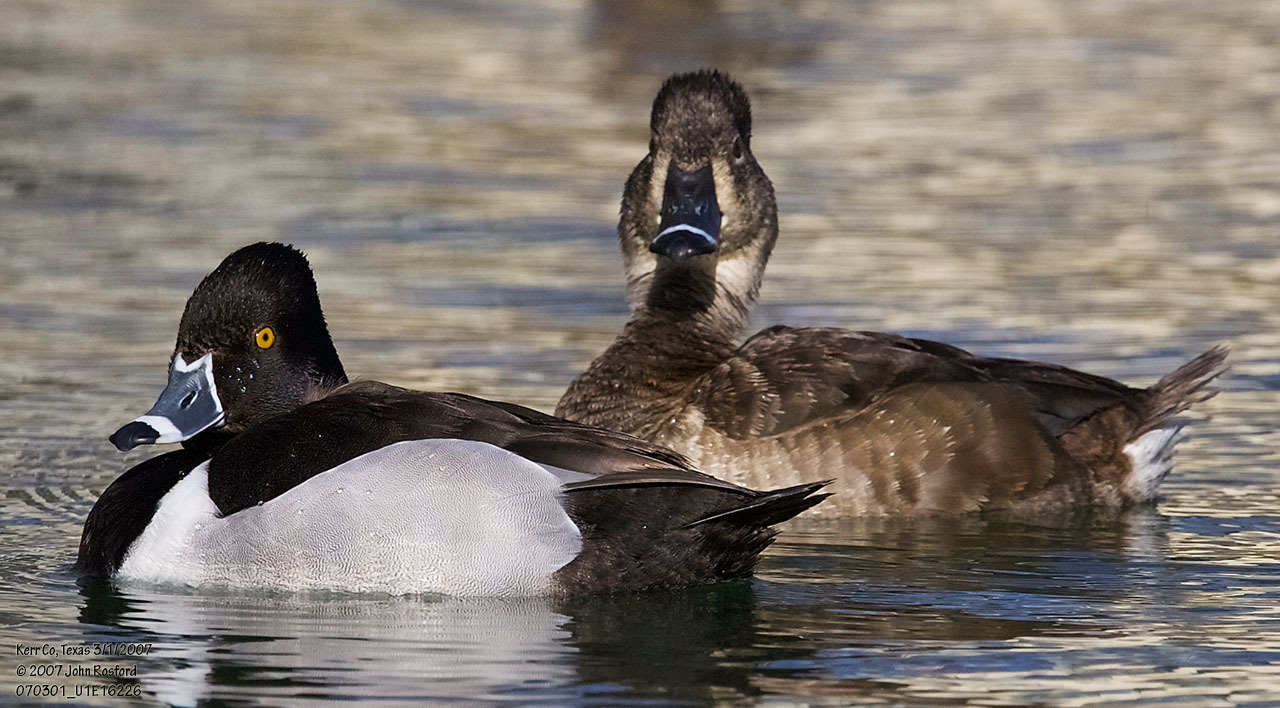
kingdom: Animalia
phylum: Chordata
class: Aves
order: Anseriformes
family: Anatidae
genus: Aythya
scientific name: Aythya collaris
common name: Ring-necked duck
